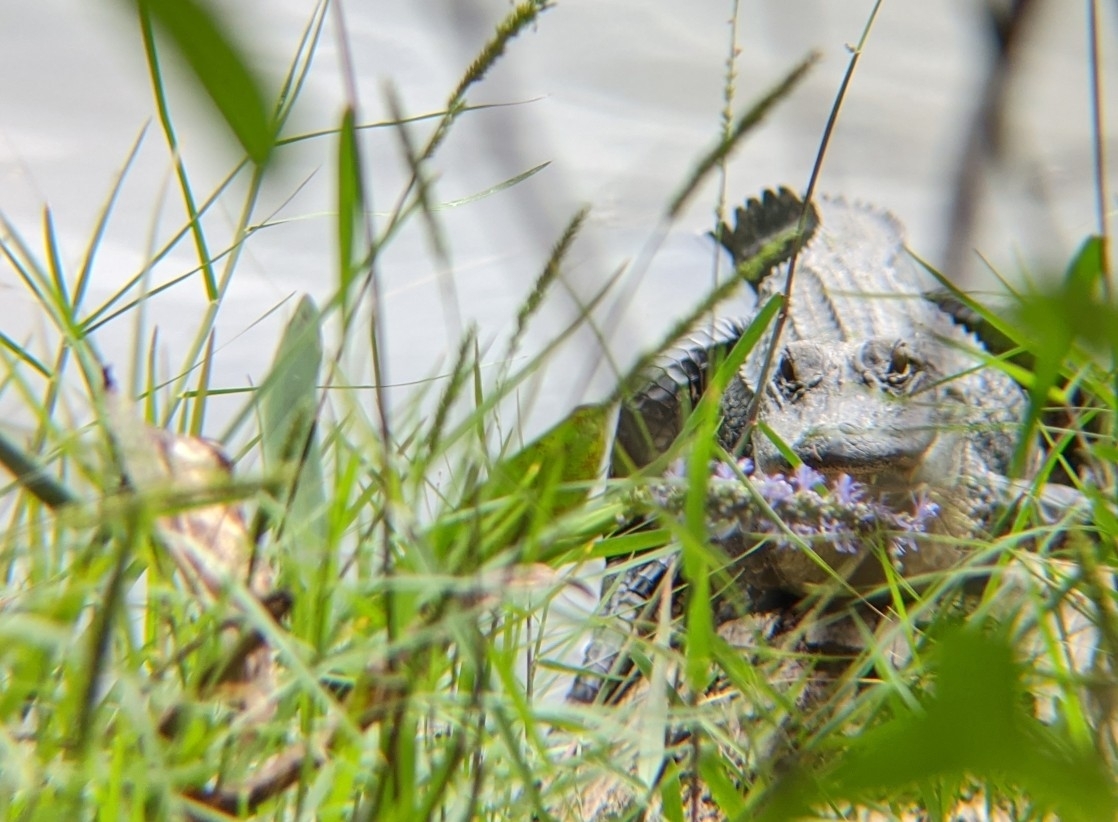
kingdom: Animalia
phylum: Chordata
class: Crocodylia
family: Alligatoridae
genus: Alligator
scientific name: Alligator mississippiensis
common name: American alligator
